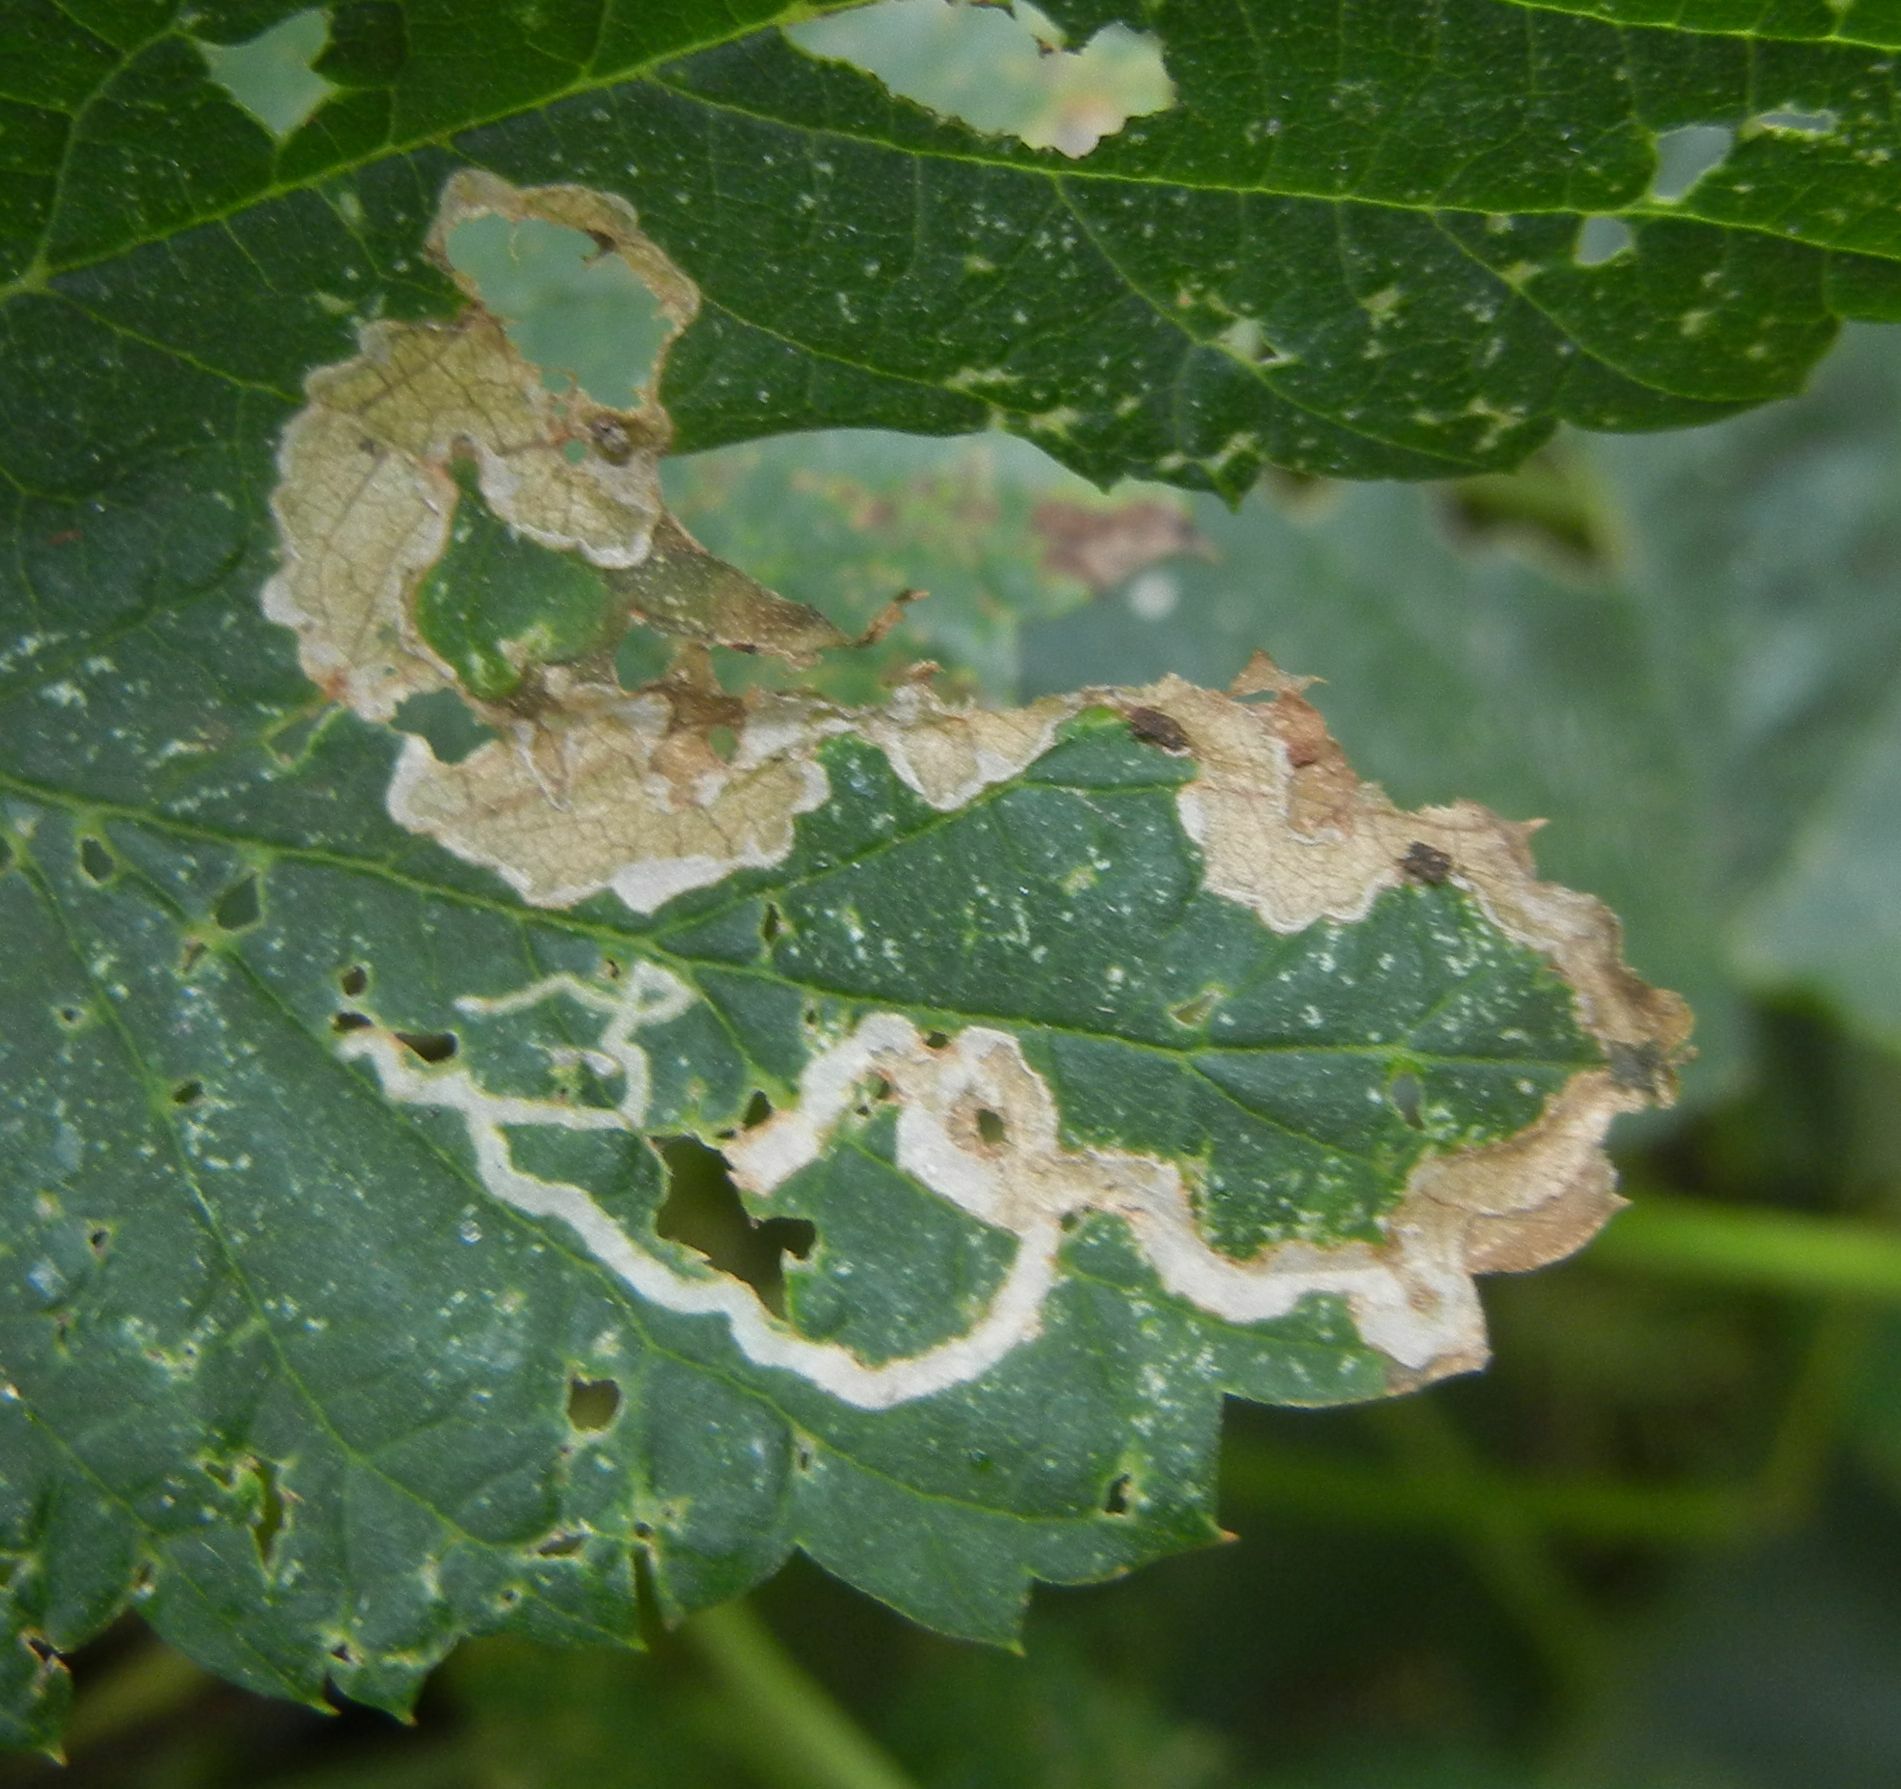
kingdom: Animalia
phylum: Arthropoda
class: Insecta
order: Diptera
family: Agromyzidae
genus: Agromyza
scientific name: Agromyza flaviceps
